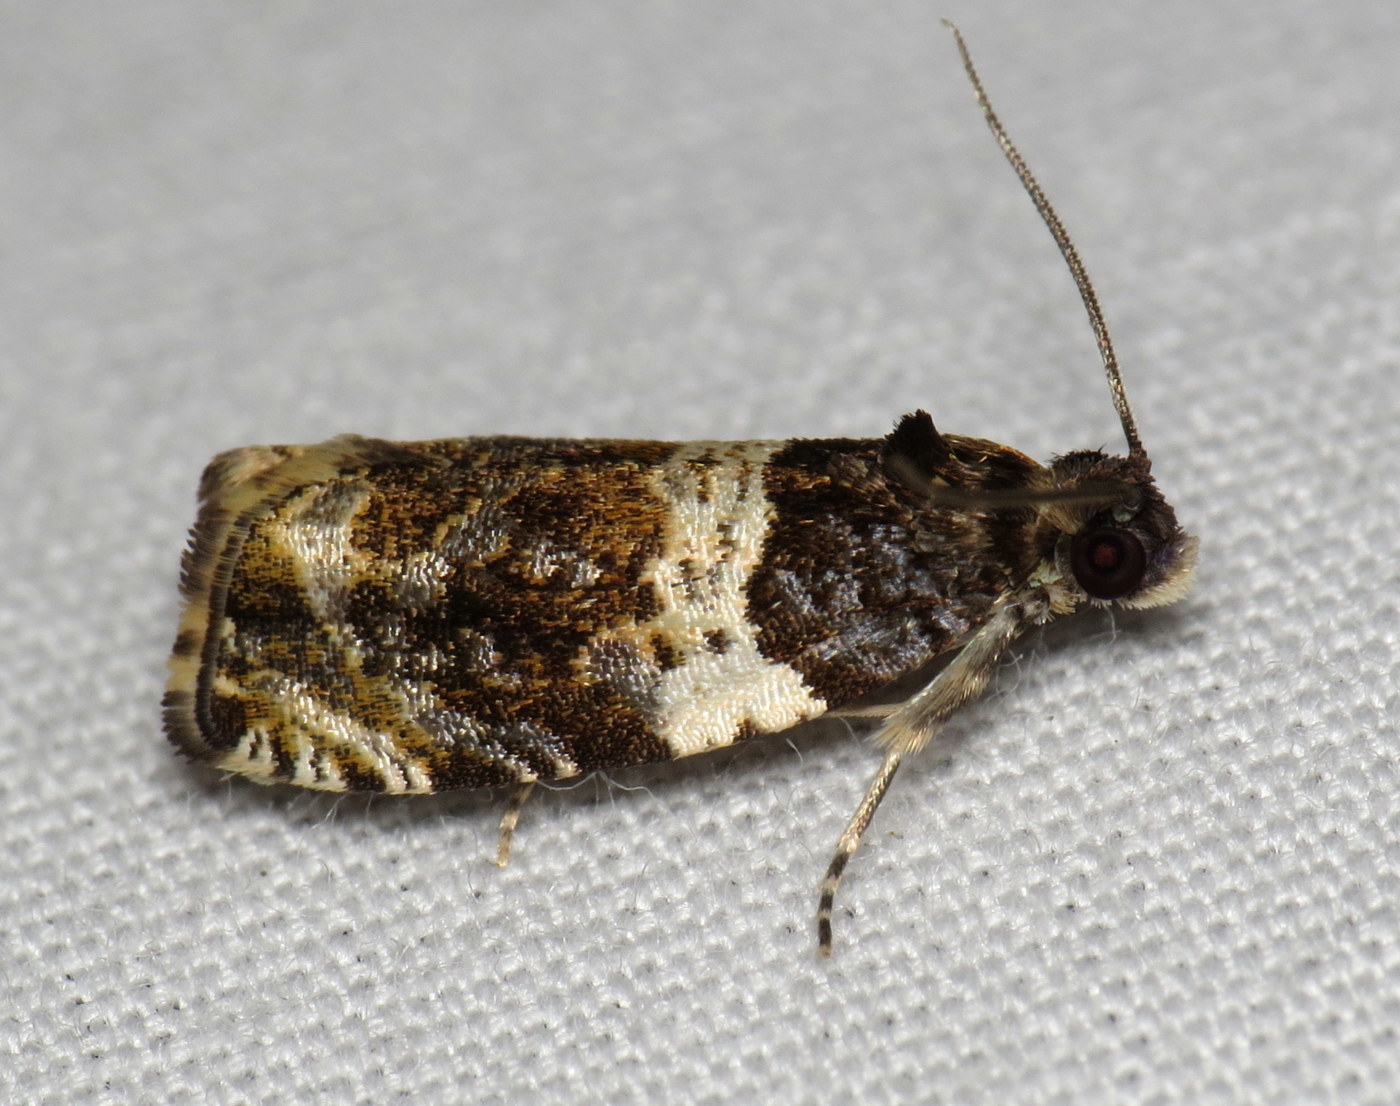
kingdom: Animalia
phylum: Arthropoda
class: Insecta
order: Lepidoptera
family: Tortricidae
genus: Olethreutes
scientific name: Olethreutes fasciatana
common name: Banded olethreutes moth
